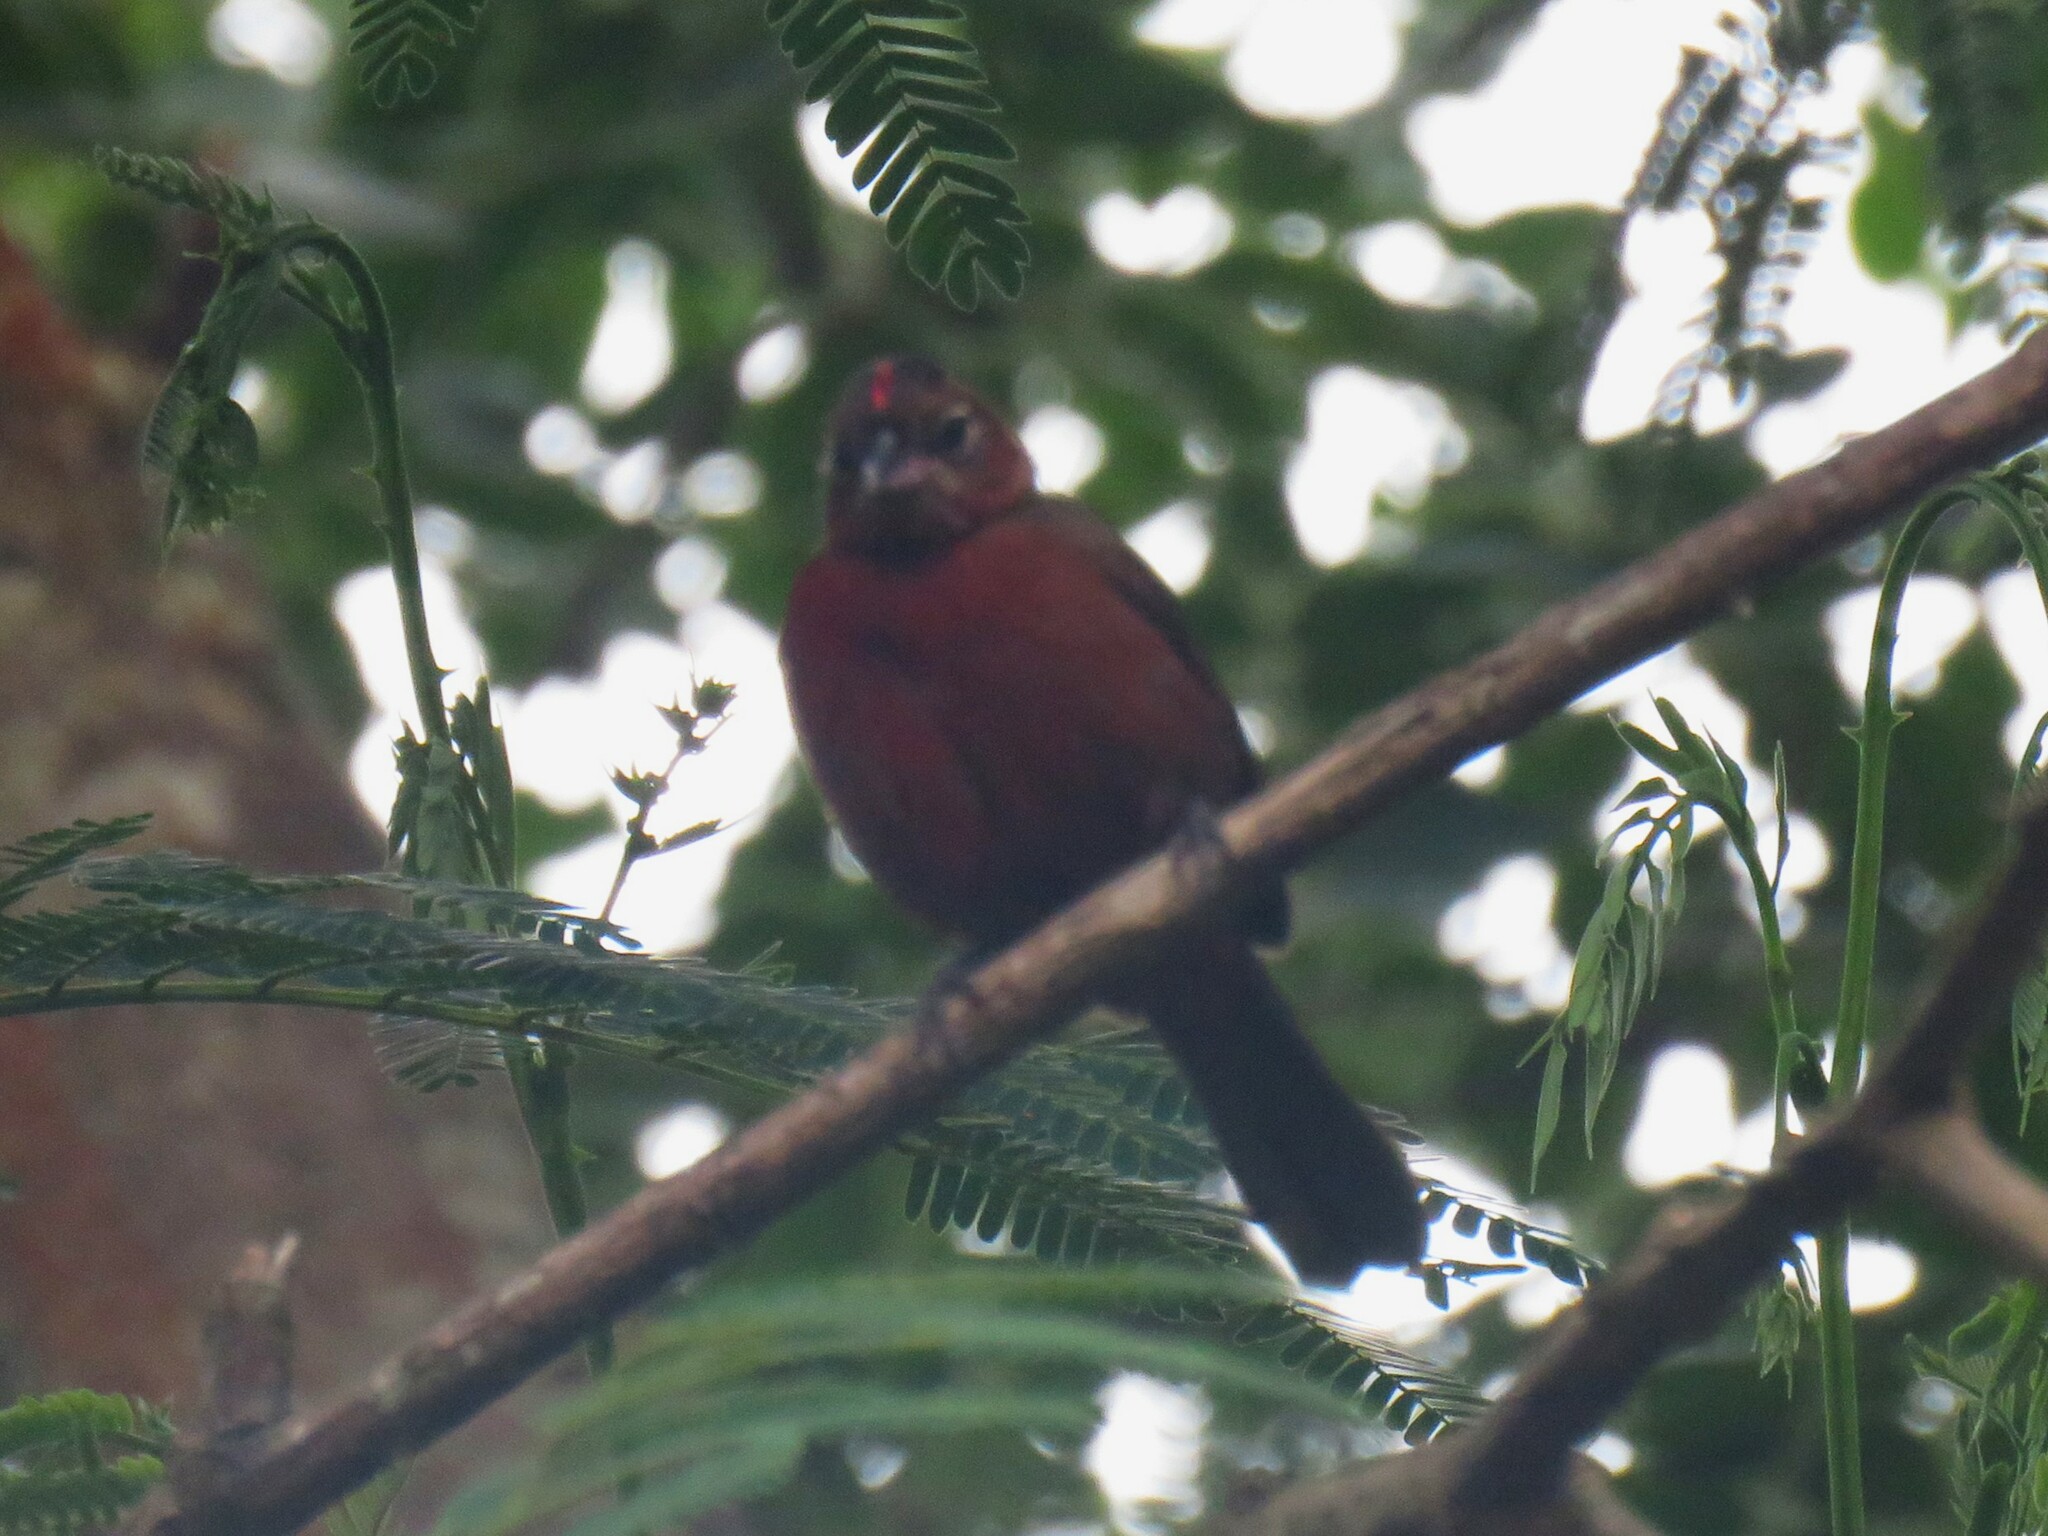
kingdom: Animalia
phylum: Chordata
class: Aves
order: Passeriformes
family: Thraupidae
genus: Coryphospingus
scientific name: Coryphospingus cucullatus
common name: Red pileated finch
